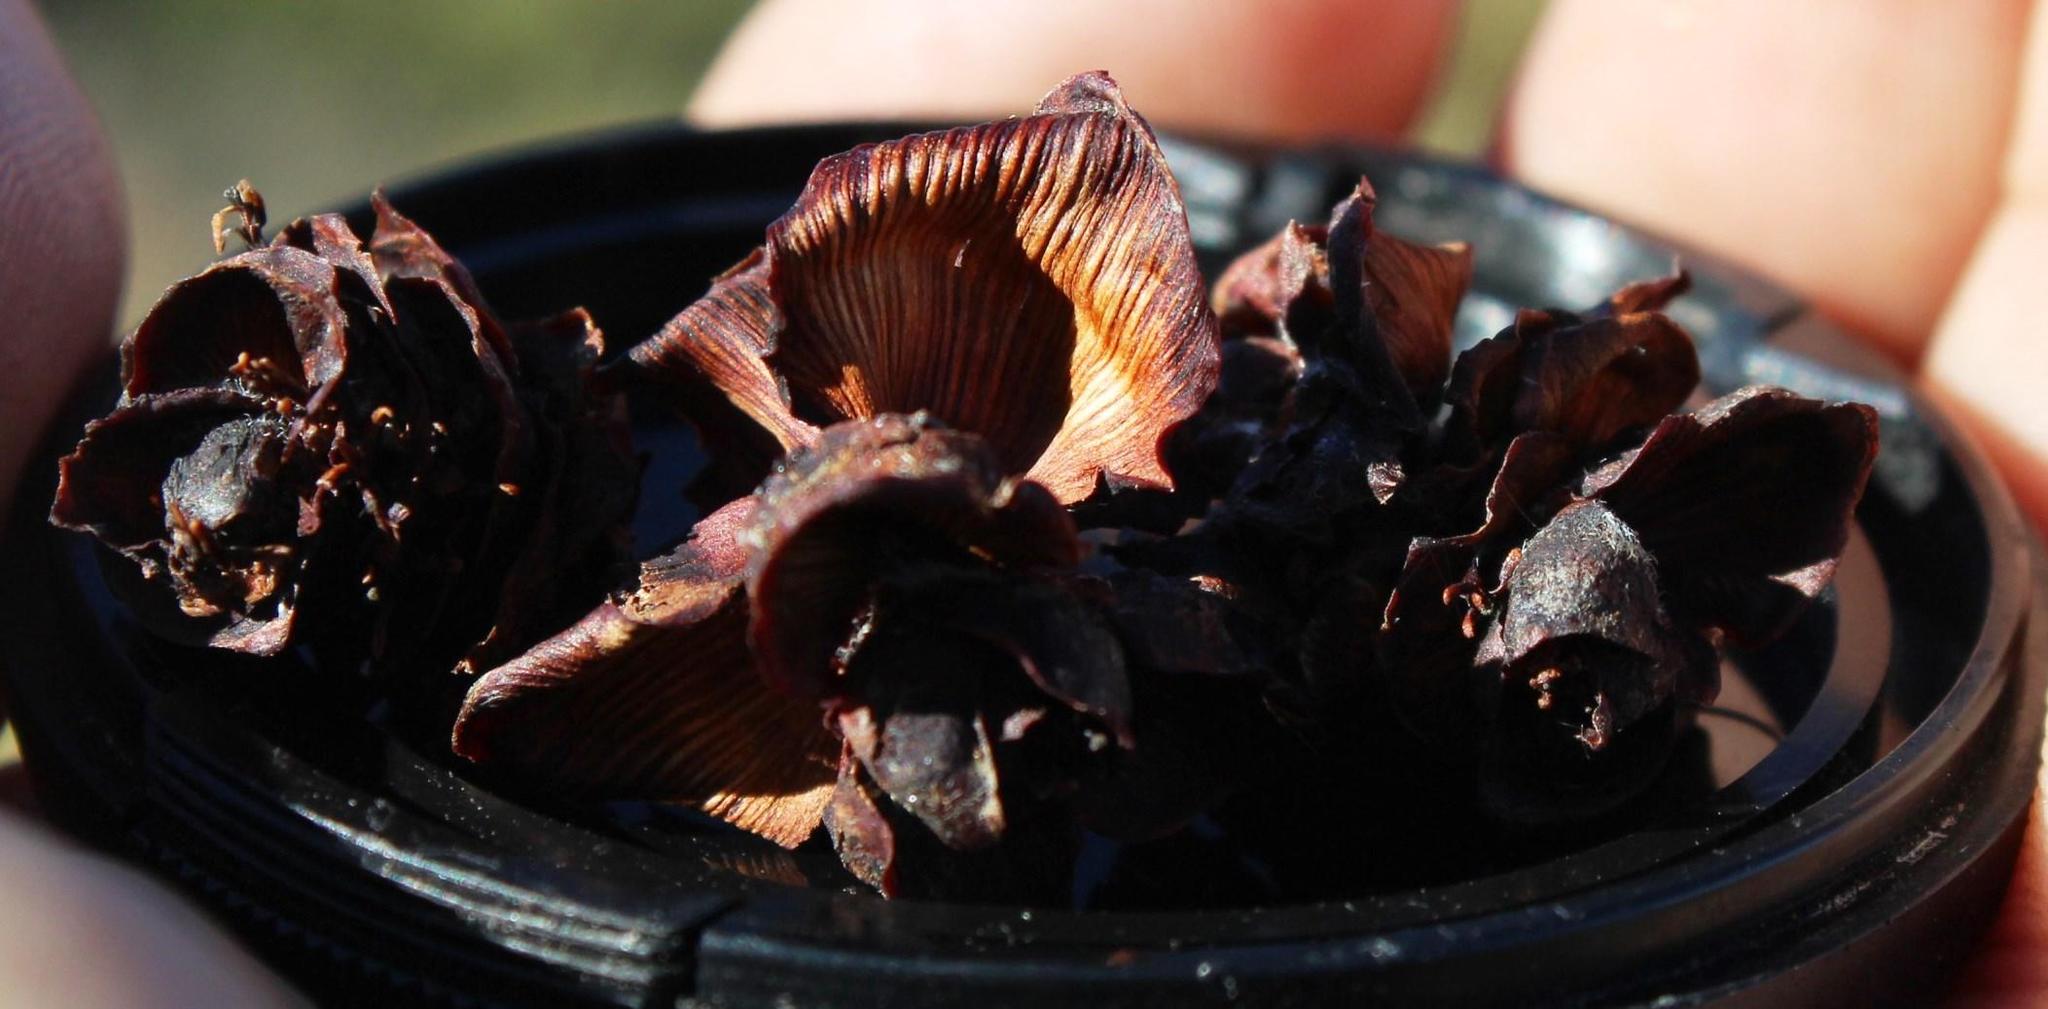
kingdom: Plantae
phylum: Tracheophyta
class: Magnoliopsida
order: Proteales
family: Proteaceae
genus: Leucadendron
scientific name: Leucadendron glaberrimum
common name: Common oily conebush
